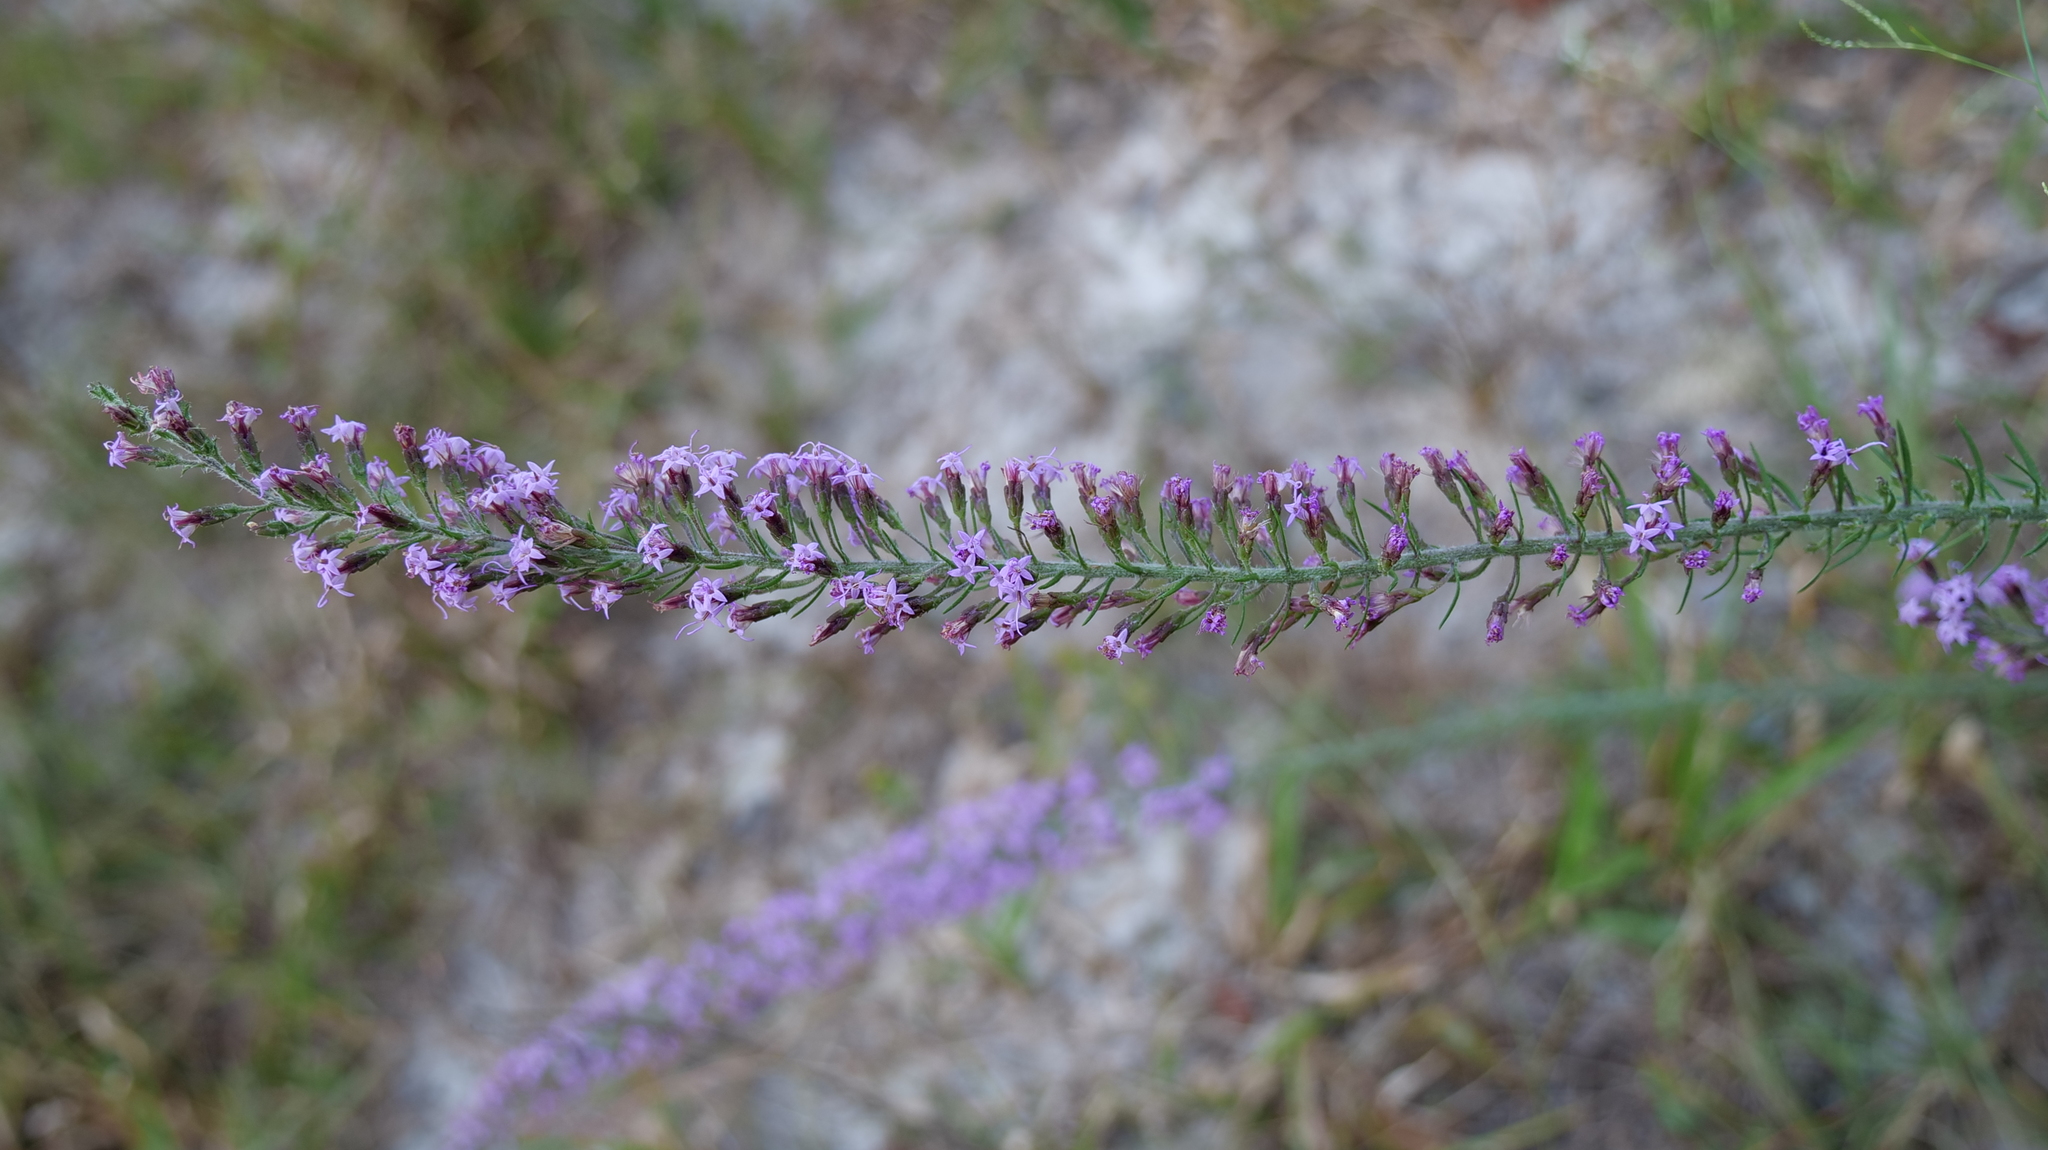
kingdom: Plantae
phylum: Tracheophyta
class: Magnoliopsida
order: Asterales
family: Asteraceae
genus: Liatris
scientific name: Liatris gracilis
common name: Slender gayfeather
